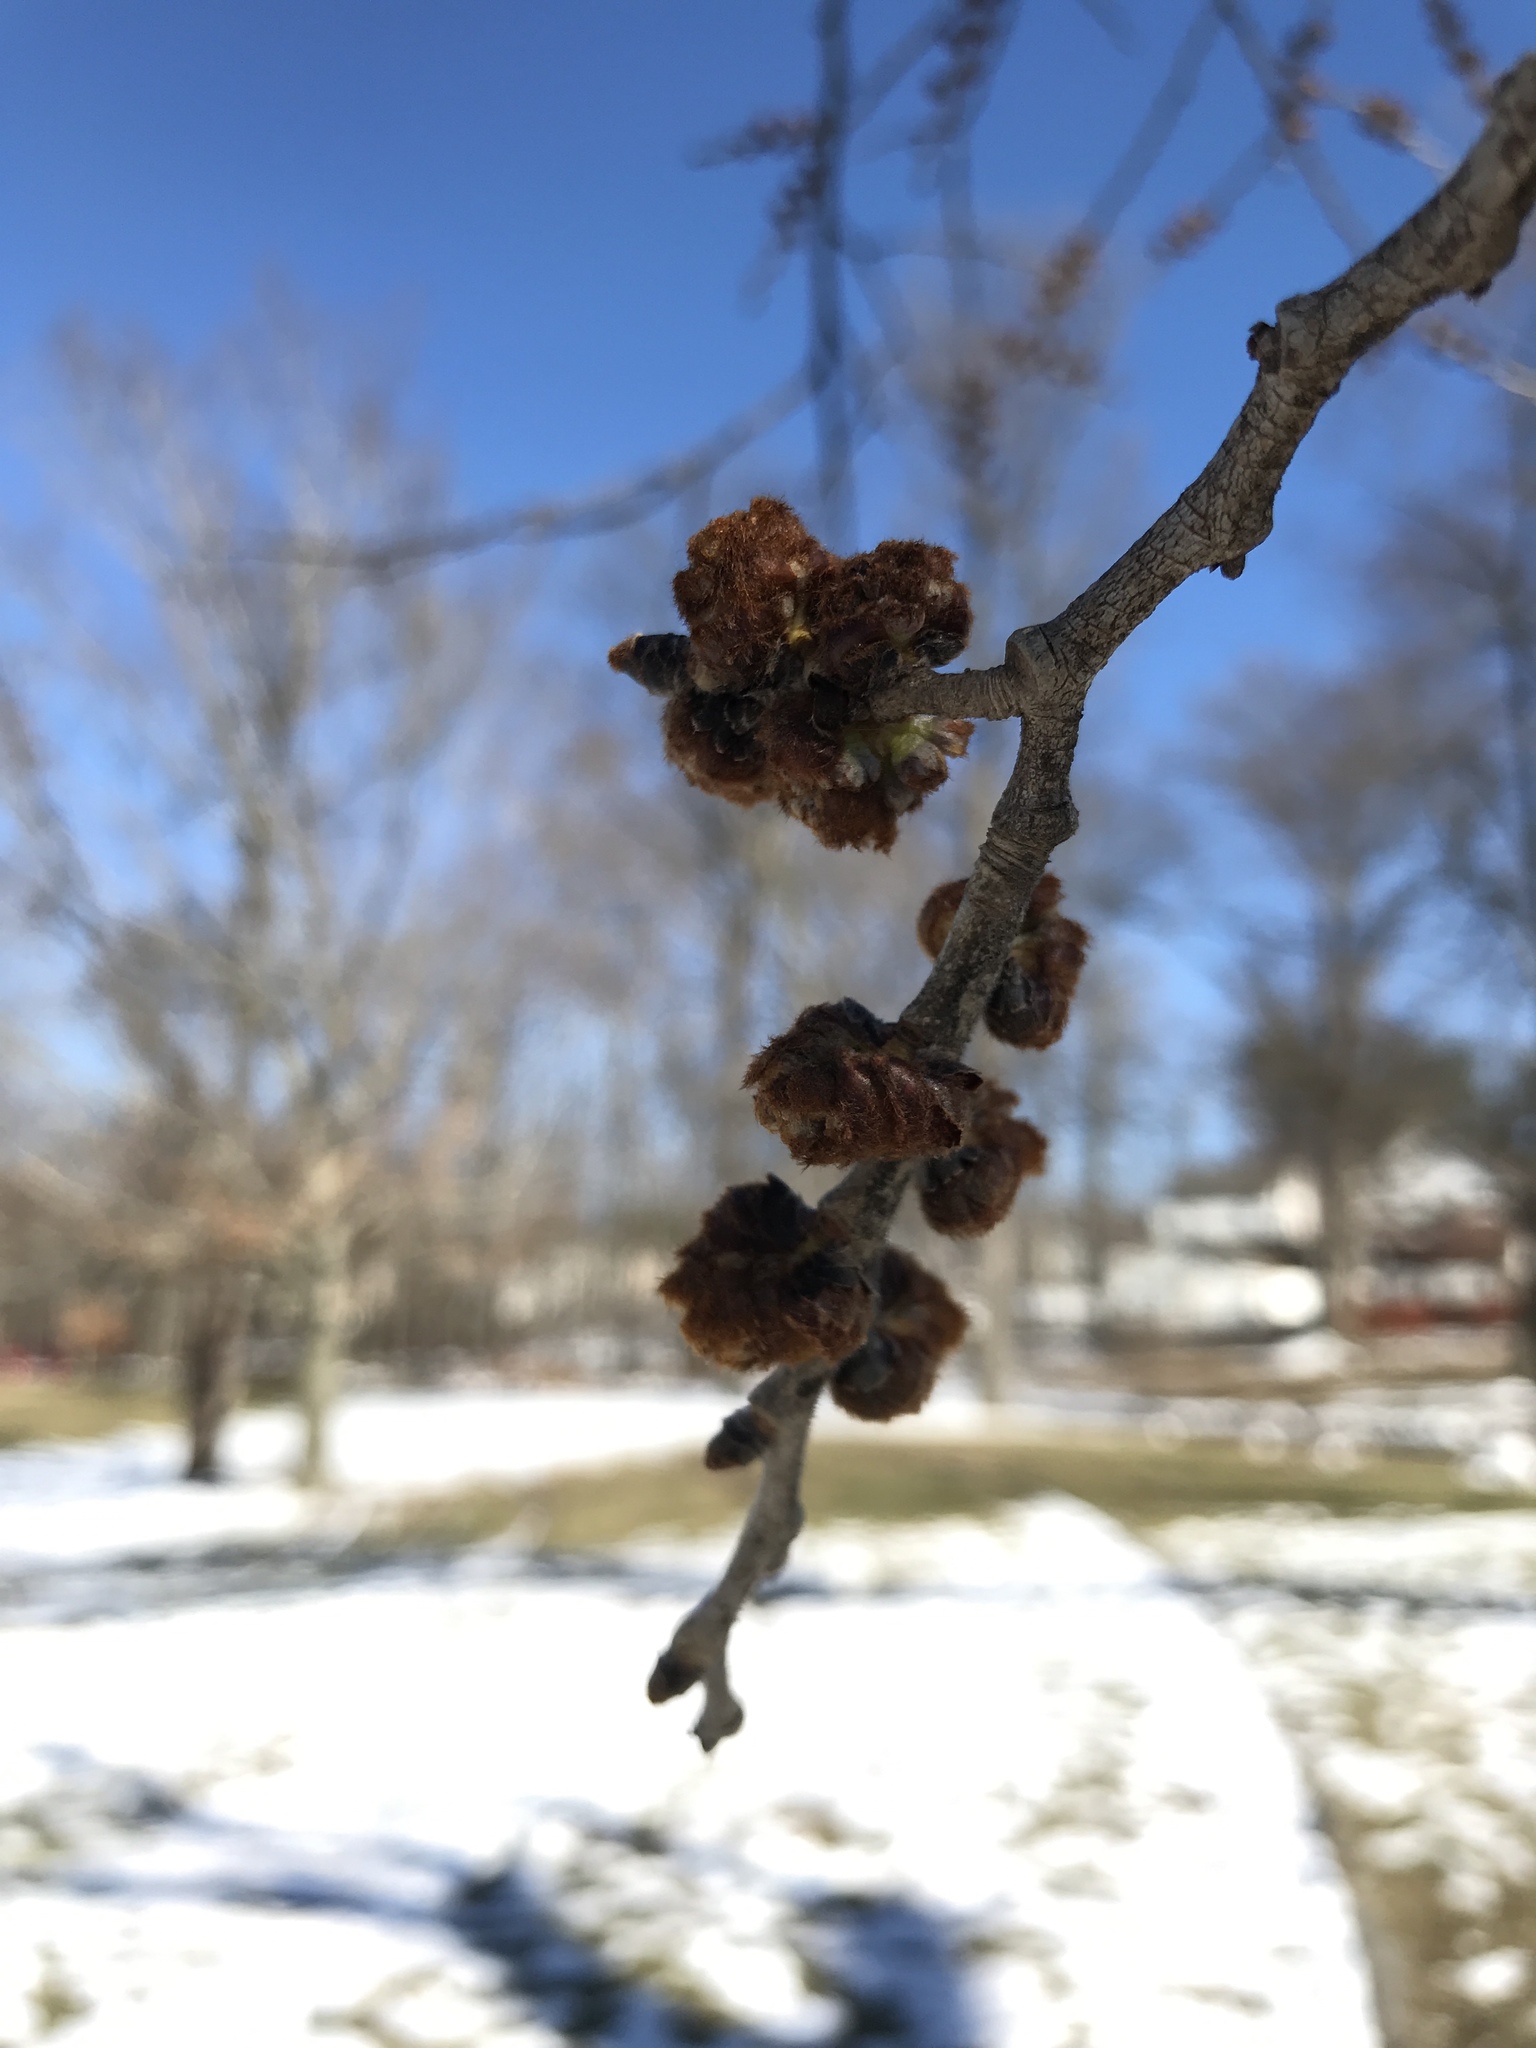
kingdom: Plantae
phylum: Tracheophyta
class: Magnoliopsida
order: Rosales
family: Ulmaceae
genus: Ulmus
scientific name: Ulmus rubra
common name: Slippery elm
